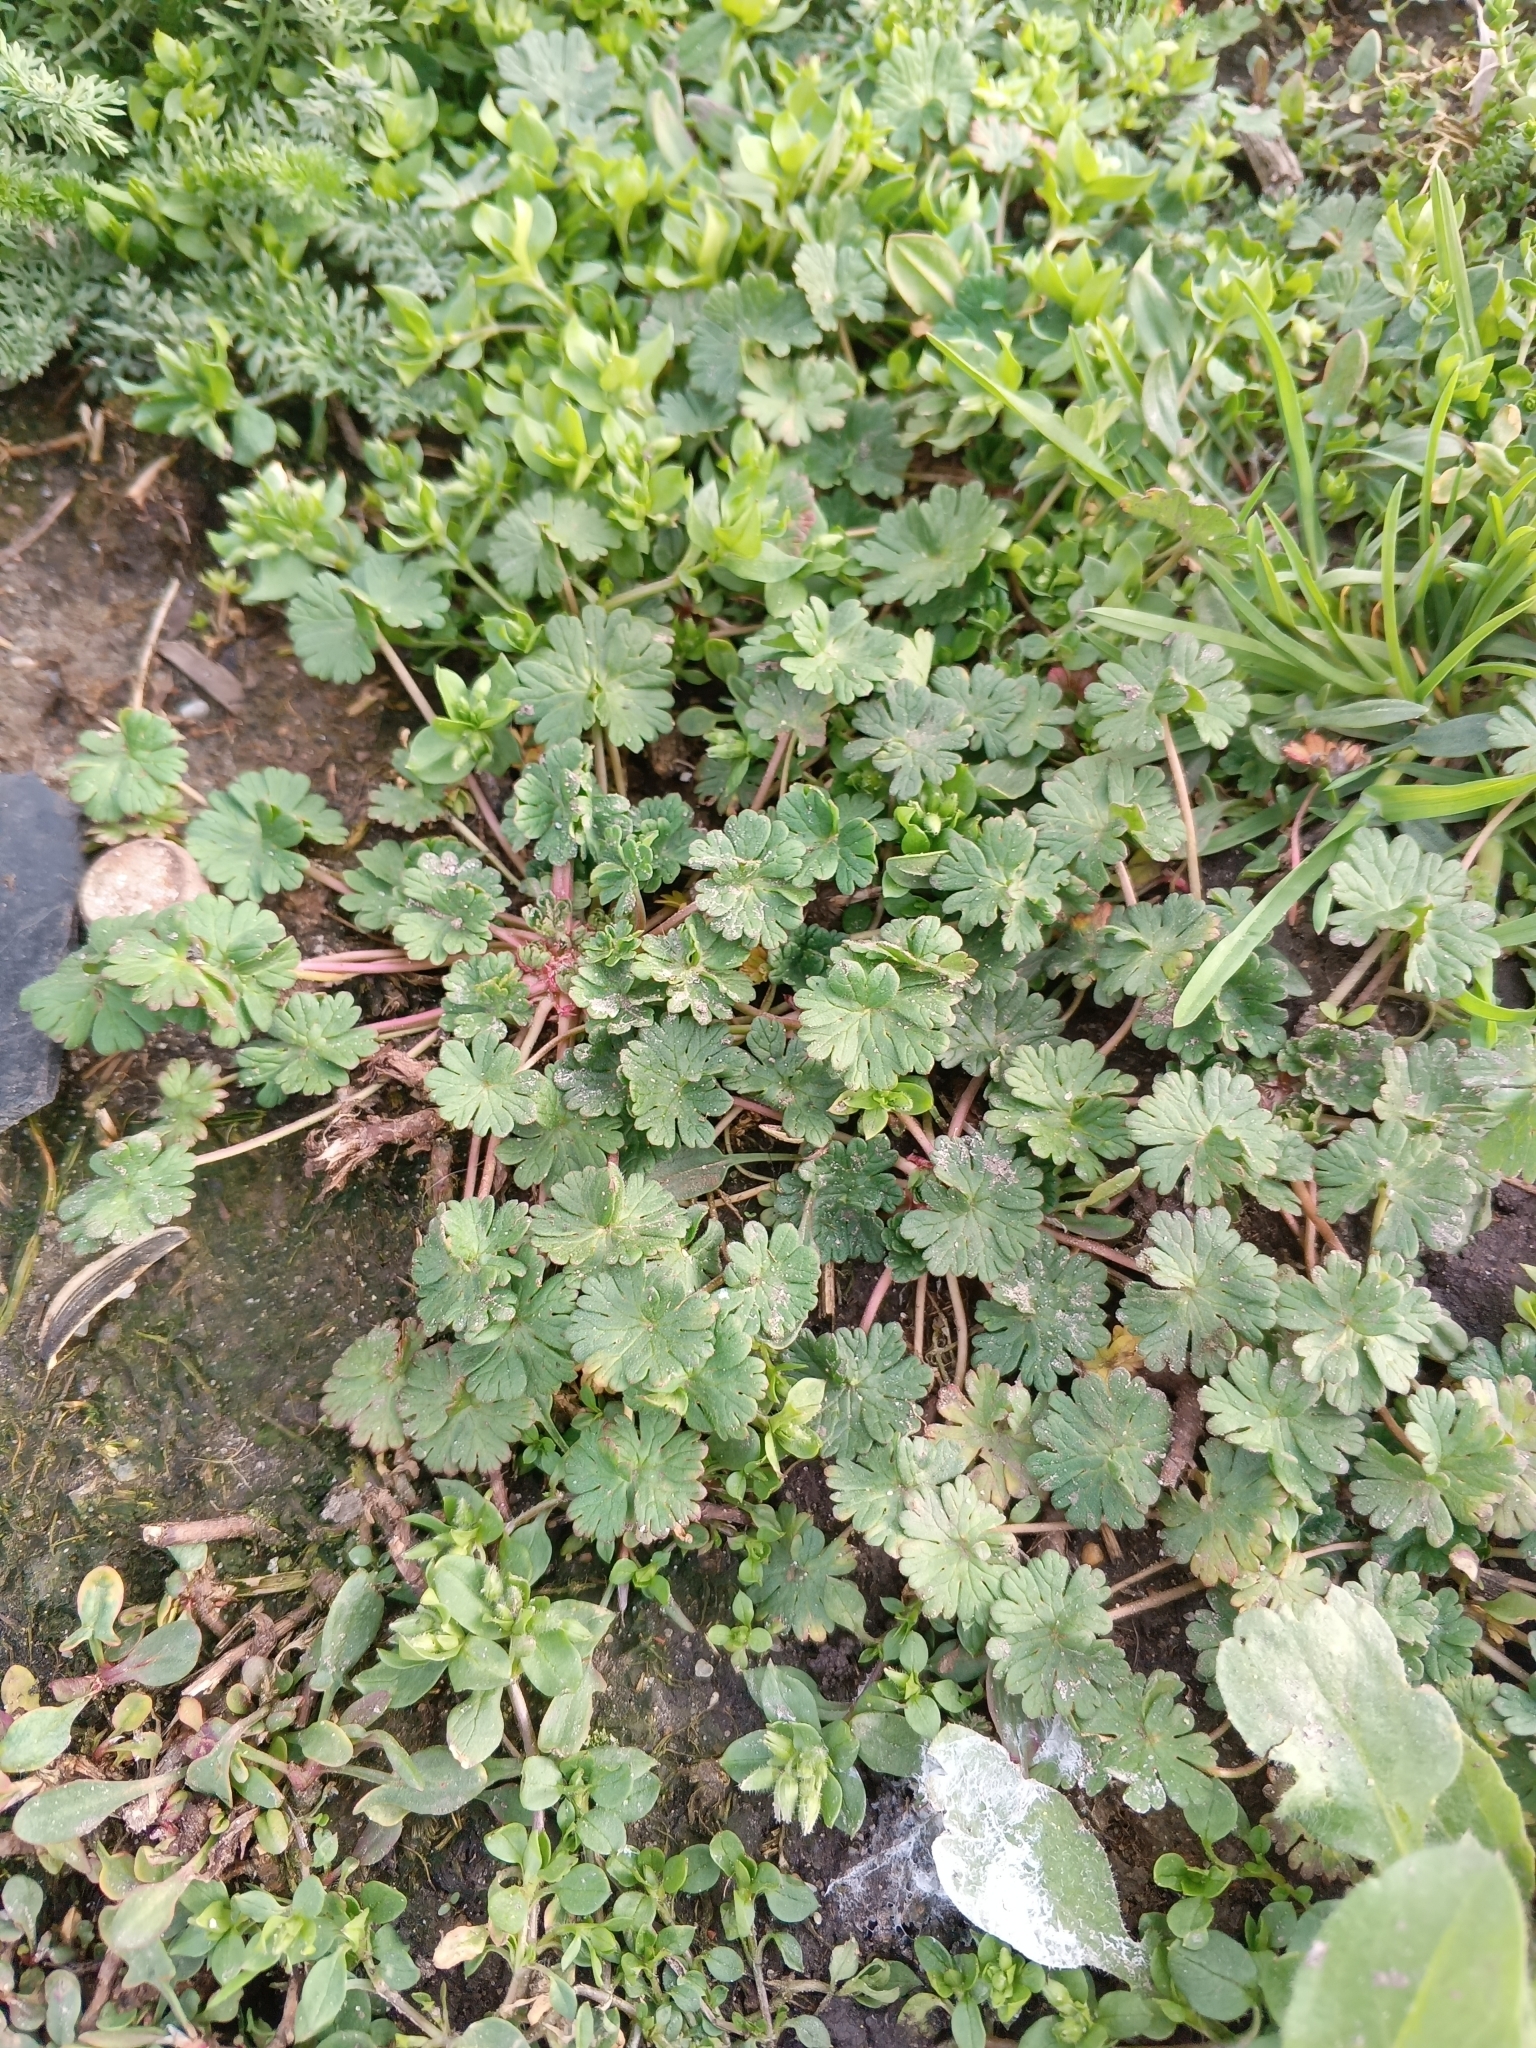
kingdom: Plantae
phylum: Tracheophyta
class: Magnoliopsida
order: Geraniales
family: Geraniaceae
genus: Geranium
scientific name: Geranium pusillum
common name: Small geranium
